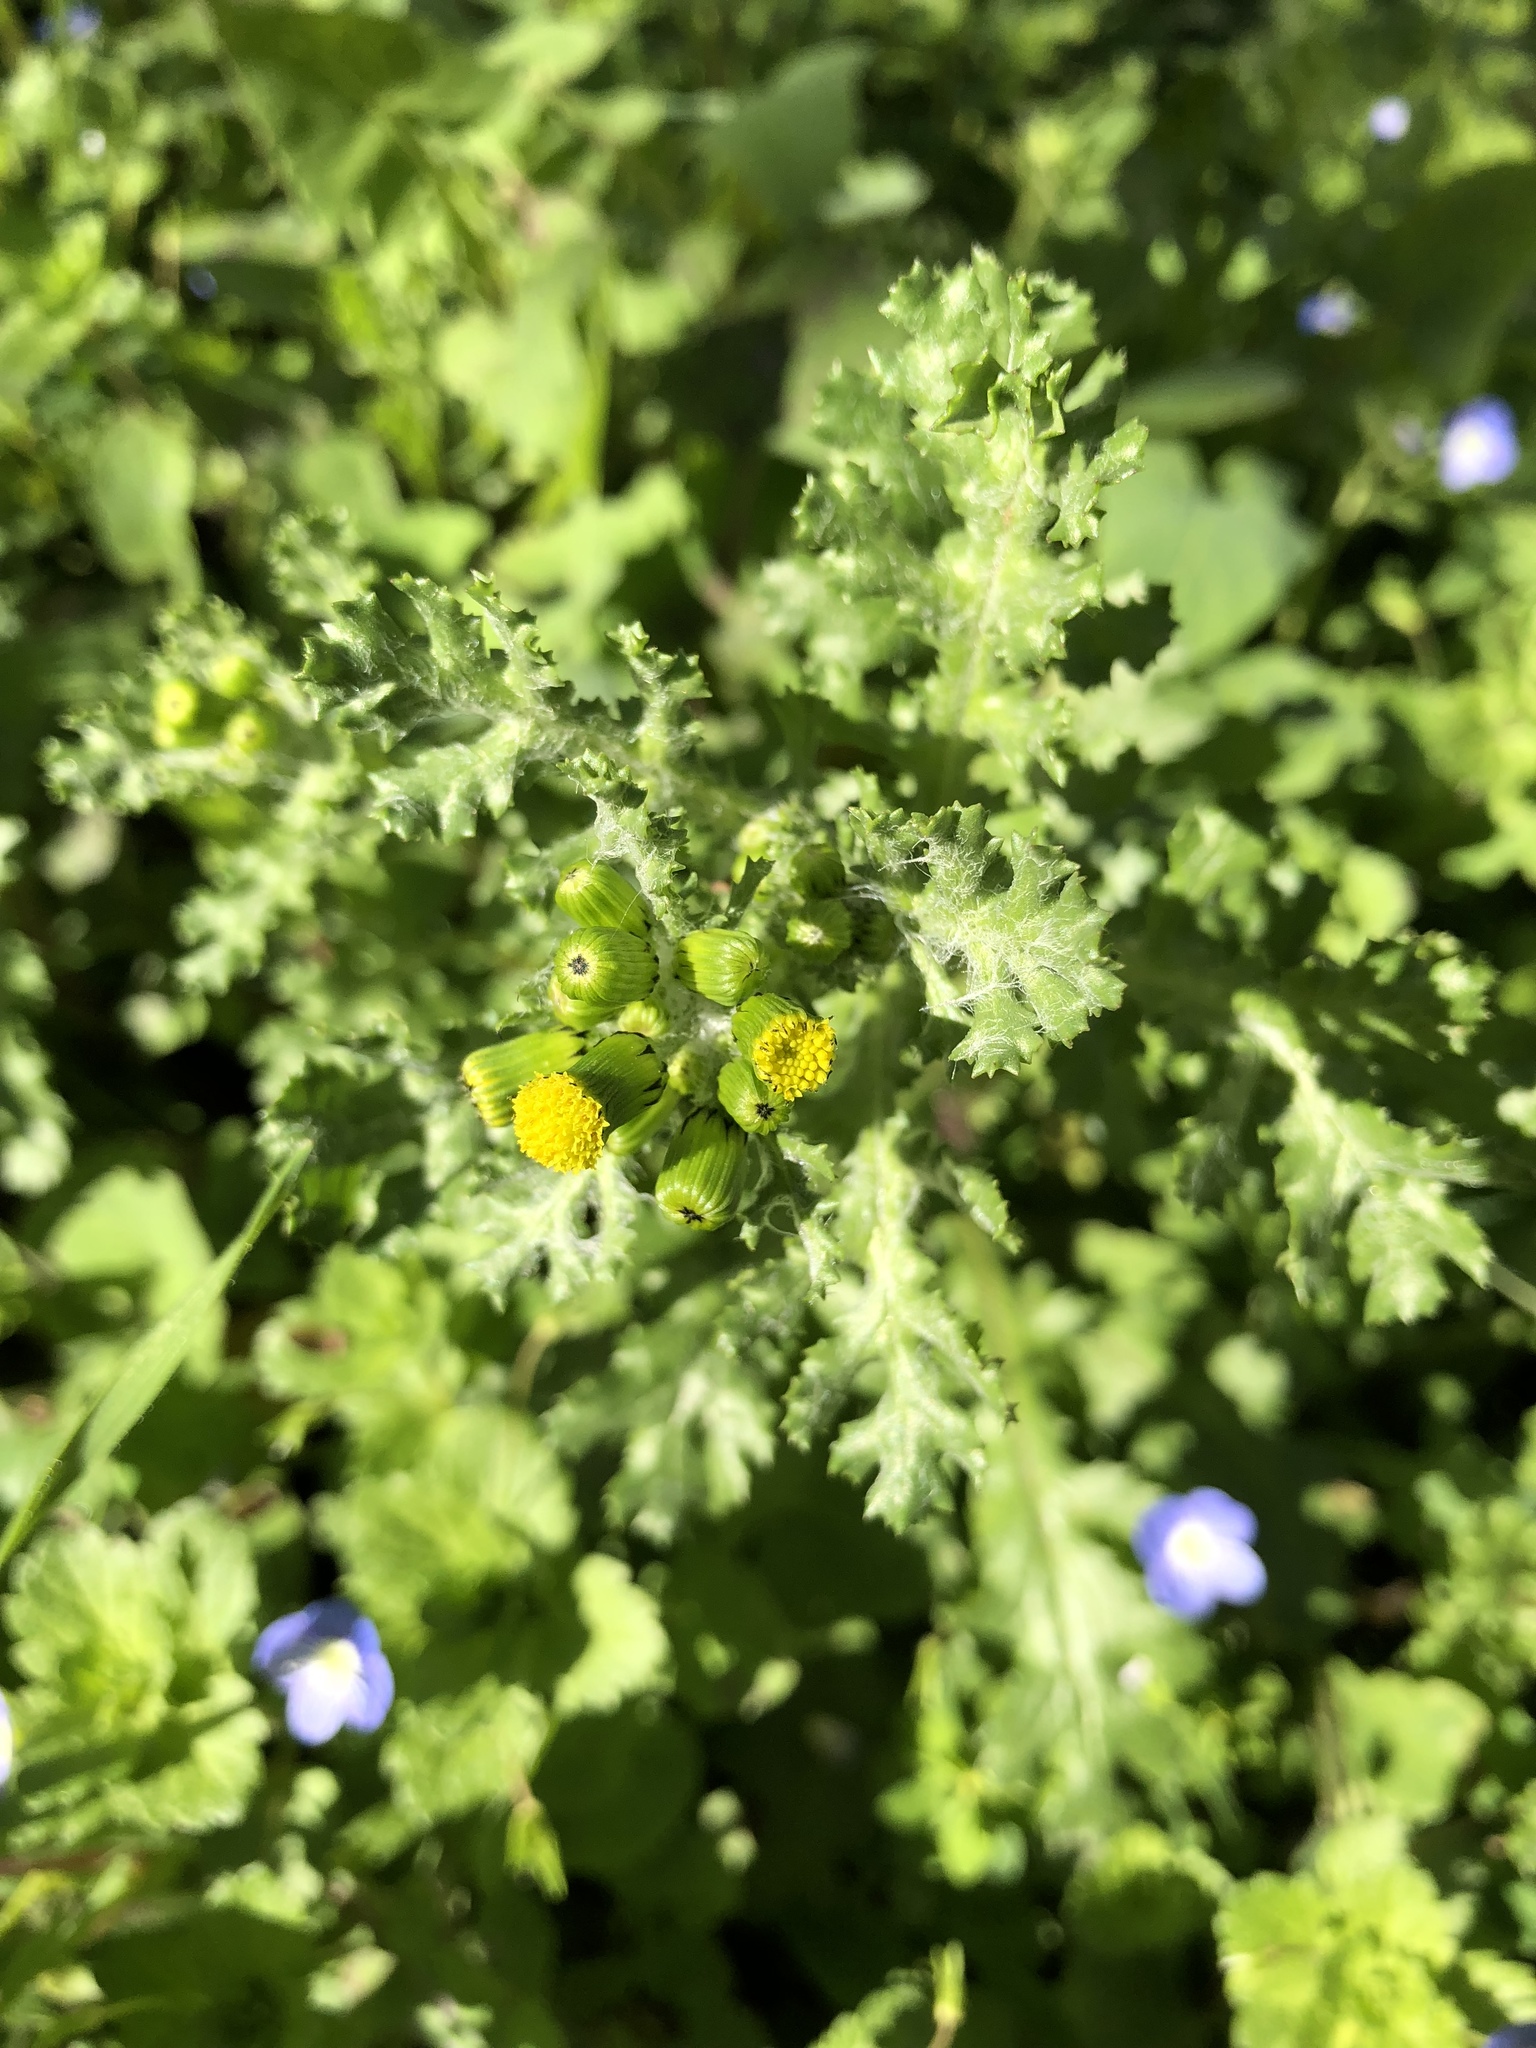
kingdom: Plantae
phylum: Tracheophyta
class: Magnoliopsida
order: Asterales
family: Asteraceae
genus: Senecio
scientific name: Senecio vulgaris
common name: Old-man-in-the-spring
